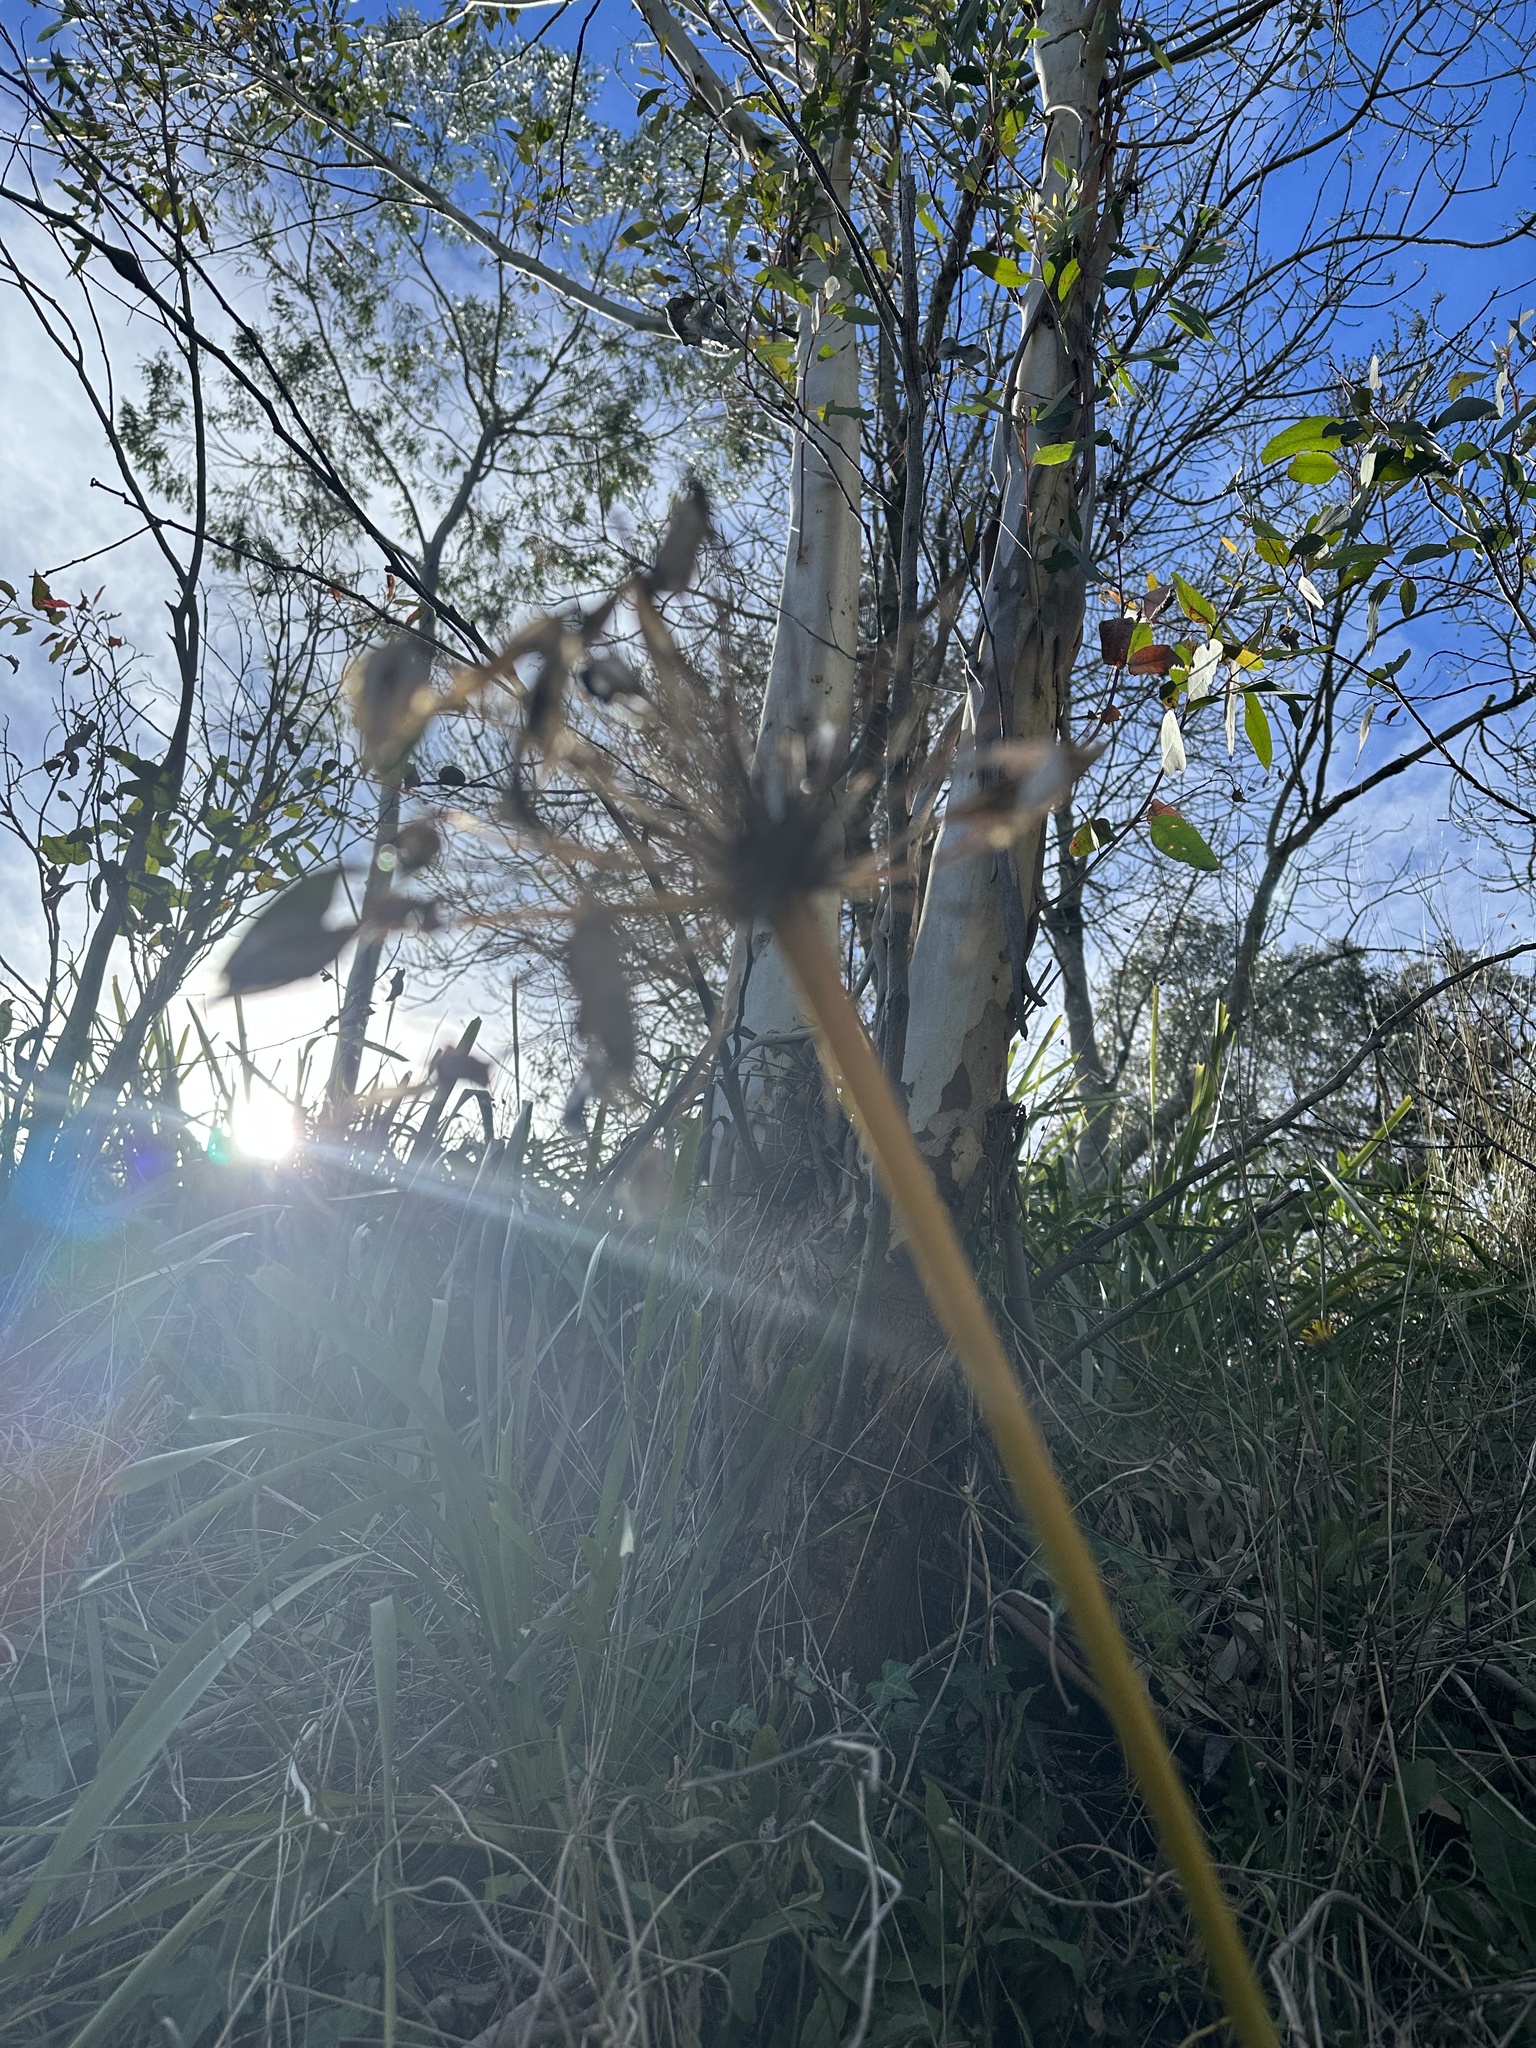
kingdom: Plantae
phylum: Tracheophyta
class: Liliopsida
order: Asparagales
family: Amaryllidaceae
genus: Agapanthus
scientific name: Agapanthus praecox
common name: African-lily
